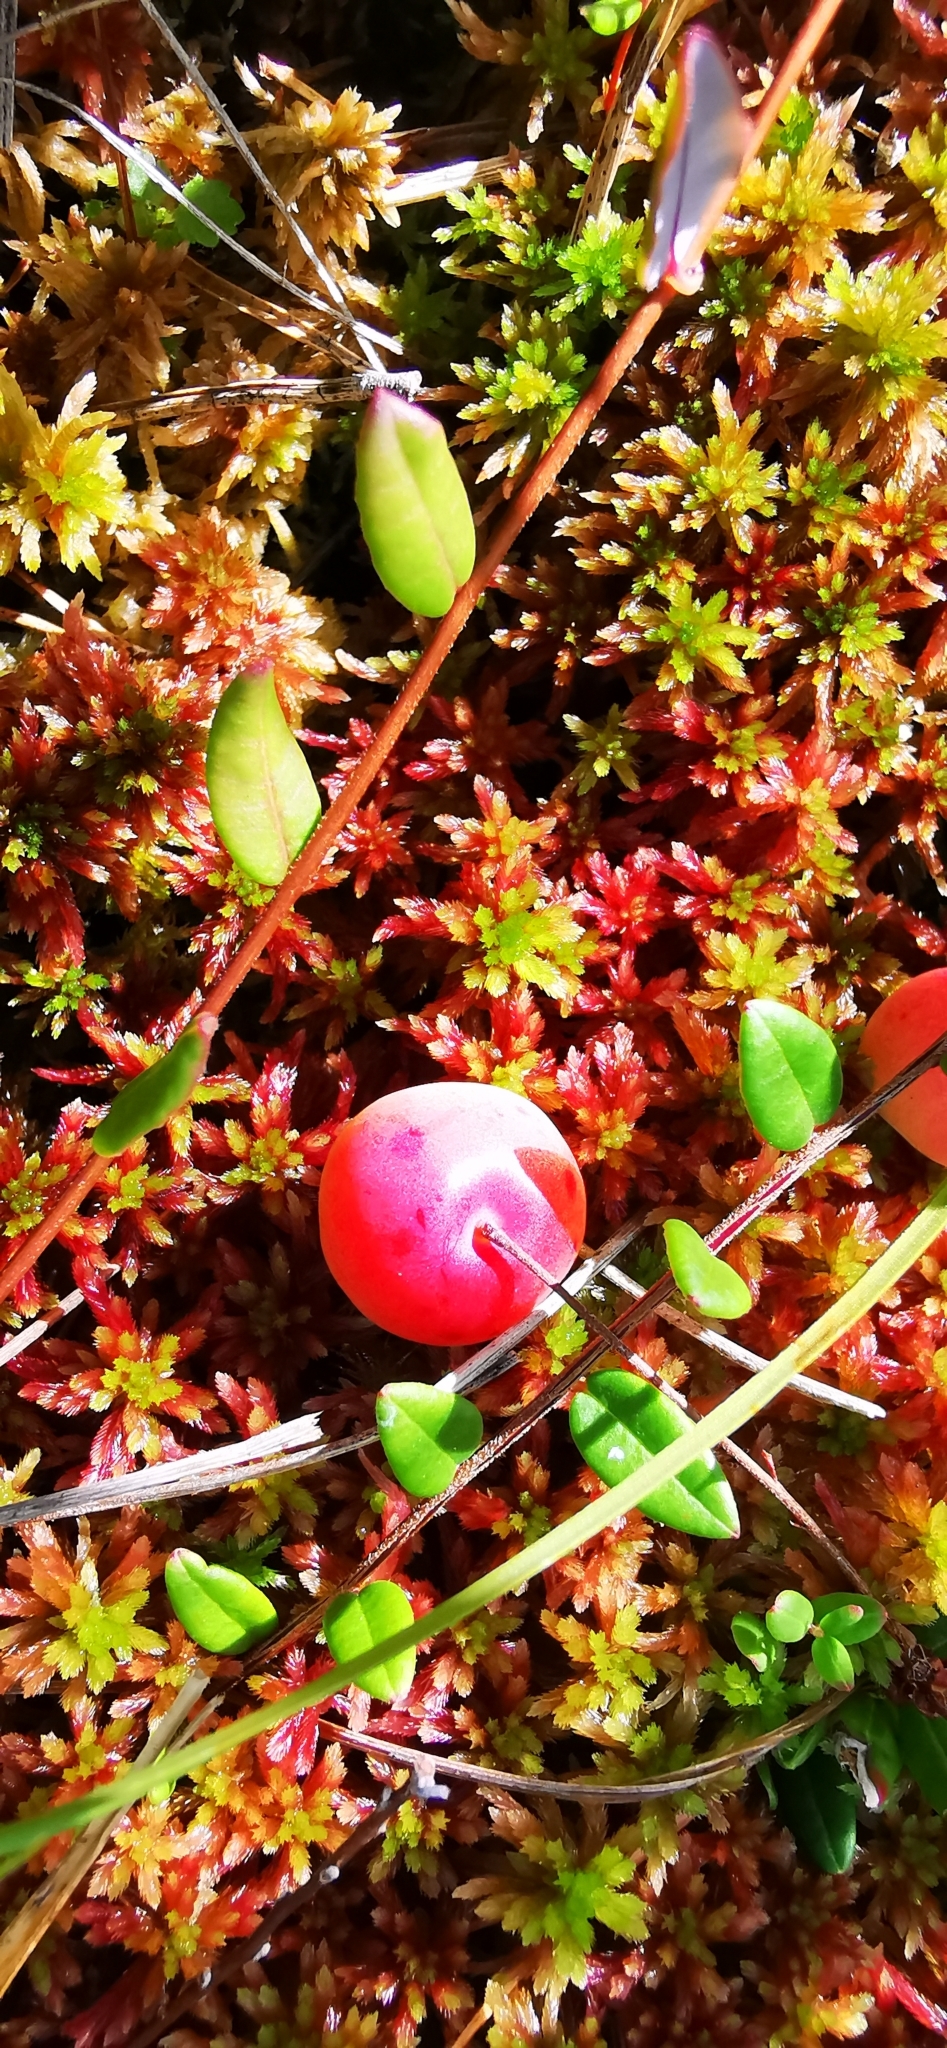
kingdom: Plantae
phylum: Tracheophyta
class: Magnoliopsida
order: Ericales
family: Ericaceae
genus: Vaccinium
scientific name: Vaccinium oxycoccos
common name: Cranberry
